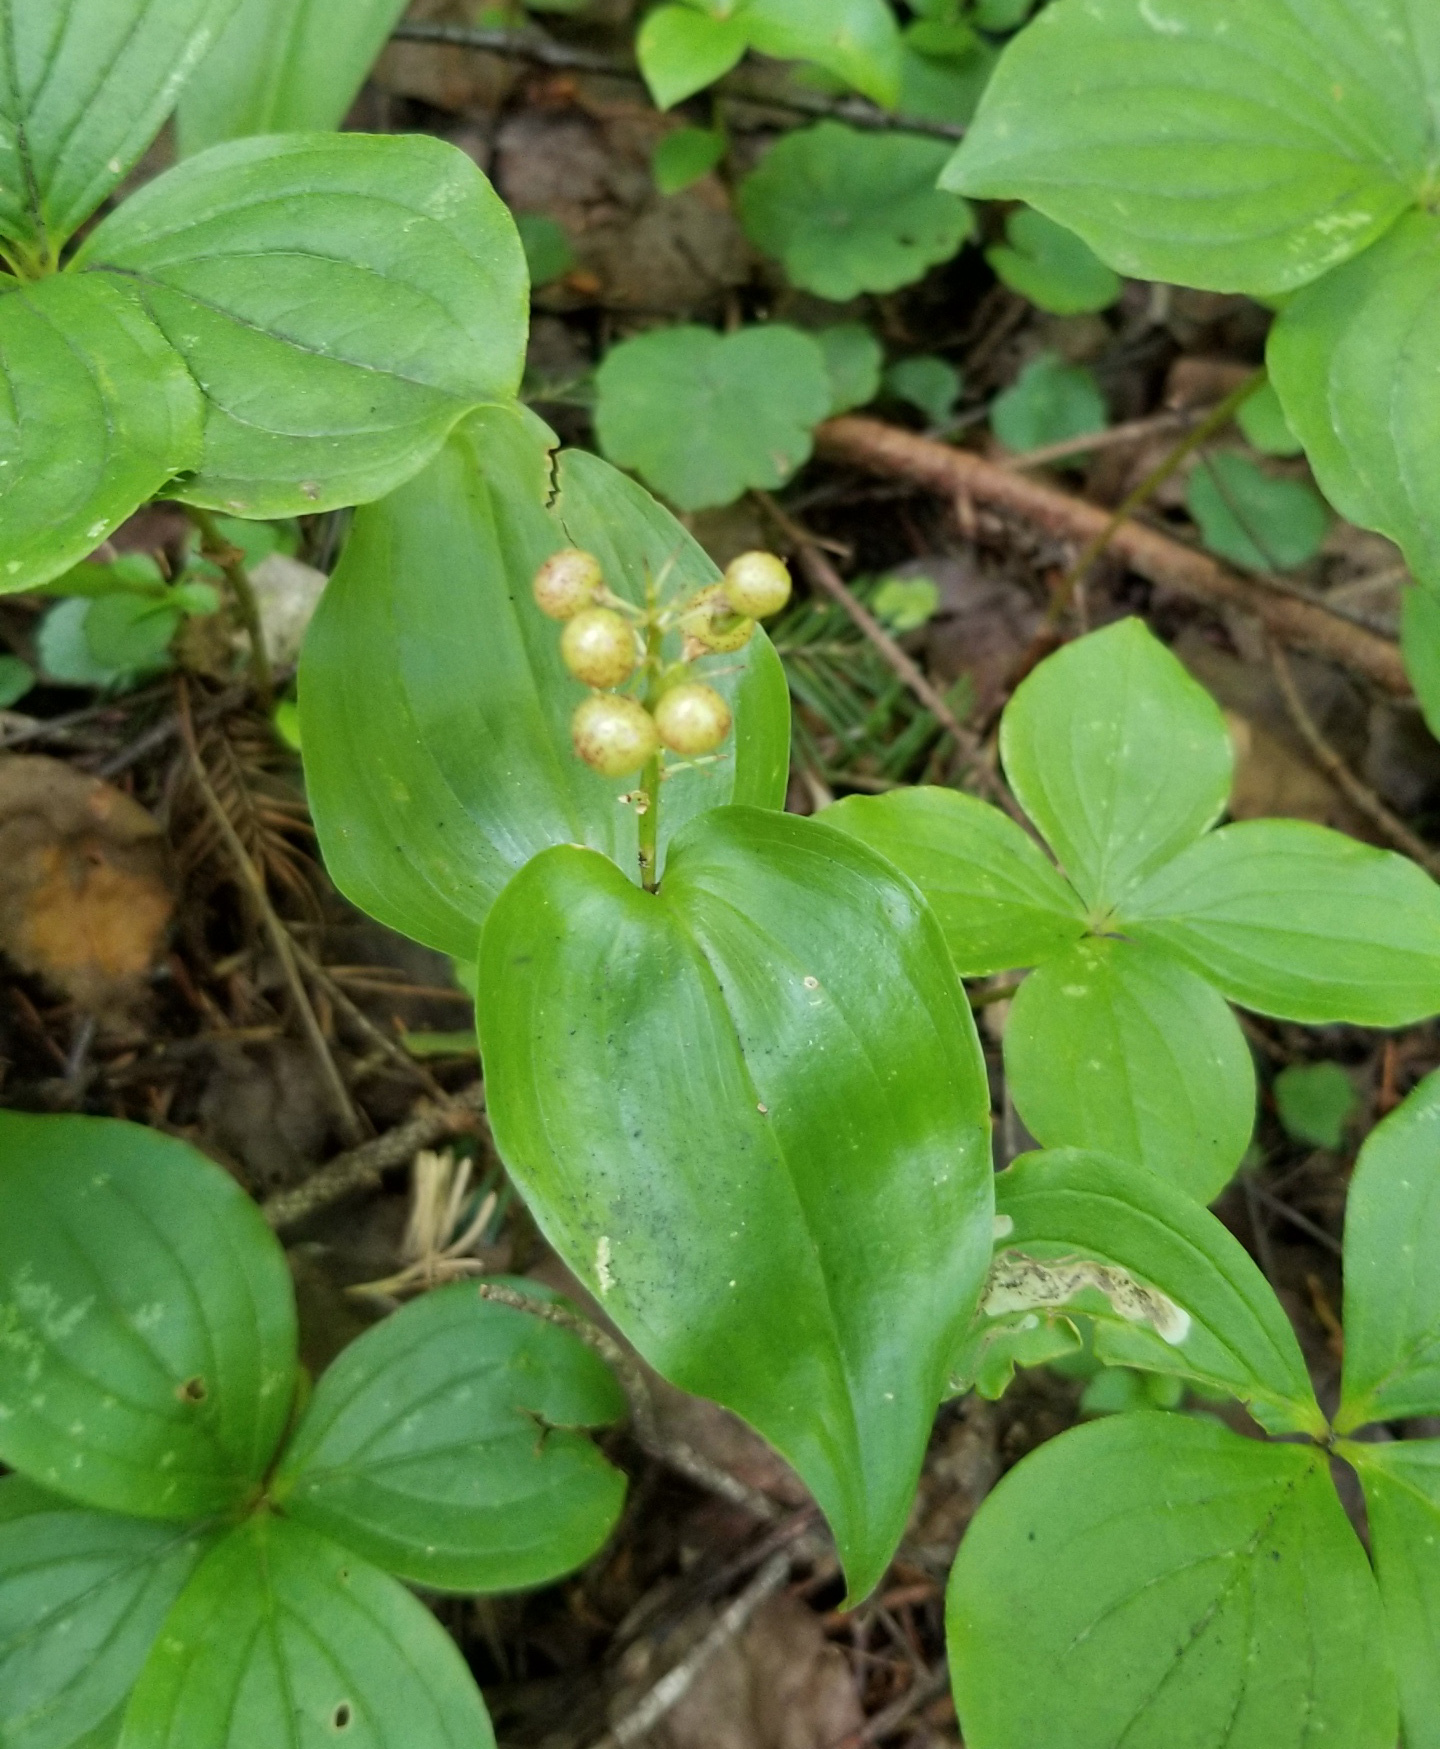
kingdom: Plantae
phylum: Tracheophyta
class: Liliopsida
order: Asparagales
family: Asparagaceae
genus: Maianthemum
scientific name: Maianthemum canadense
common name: False lily-of-the-valley
